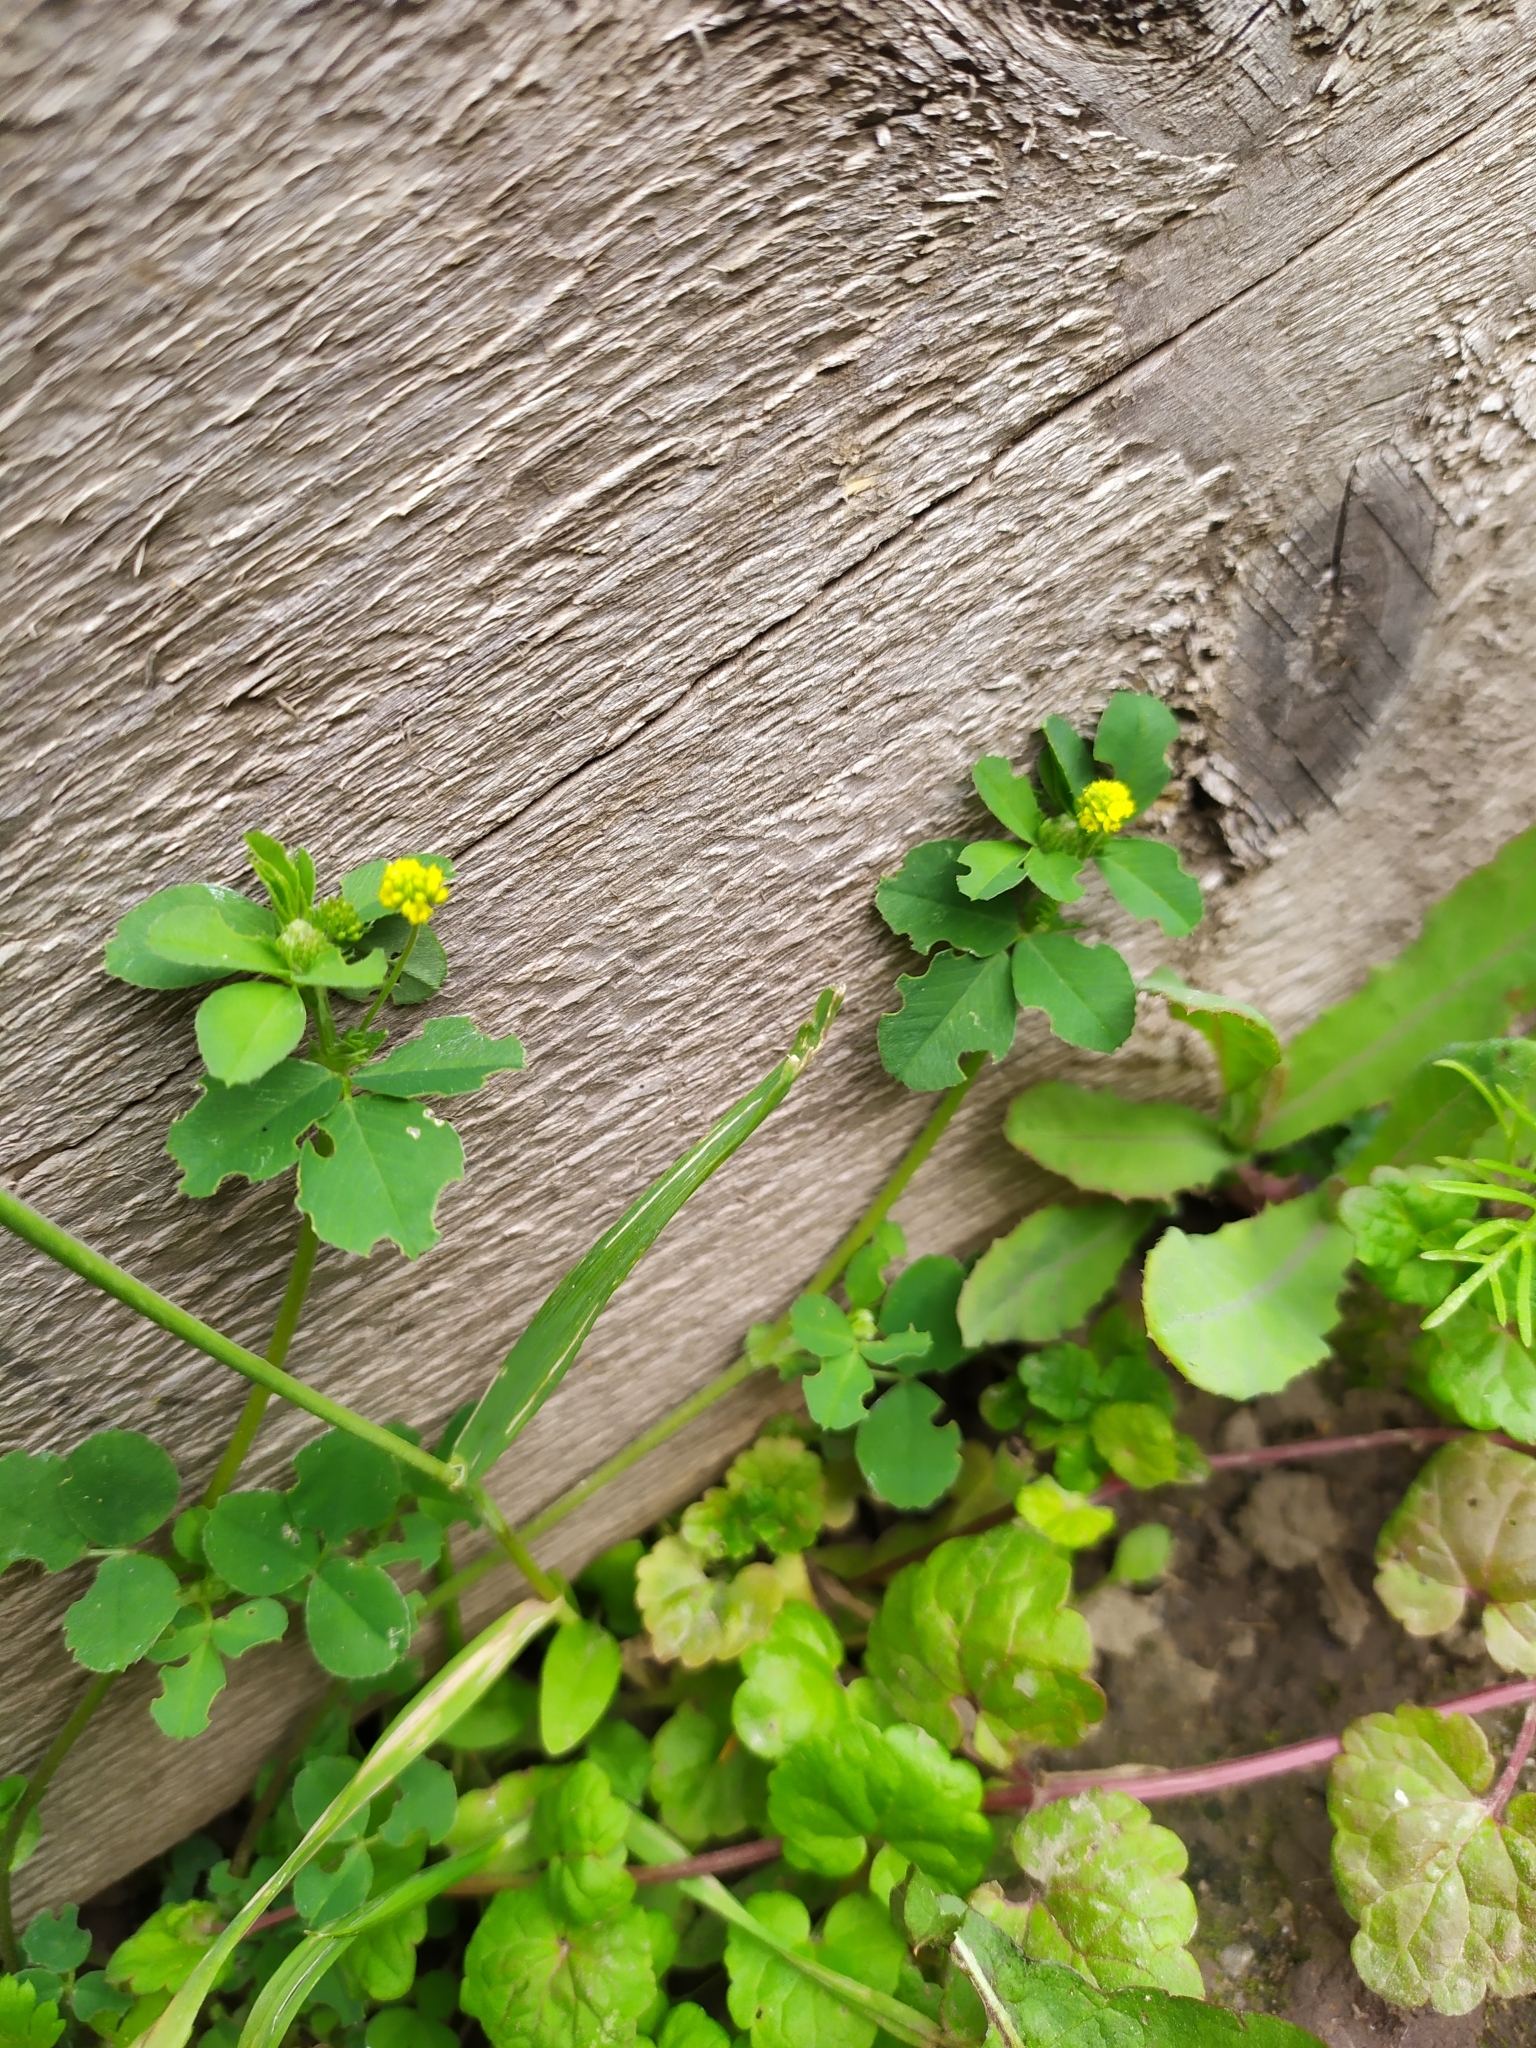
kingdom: Plantae
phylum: Tracheophyta
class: Magnoliopsida
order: Fabales
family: Fabaceae
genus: Medicago
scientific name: Medicago lupulina
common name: Black medick
